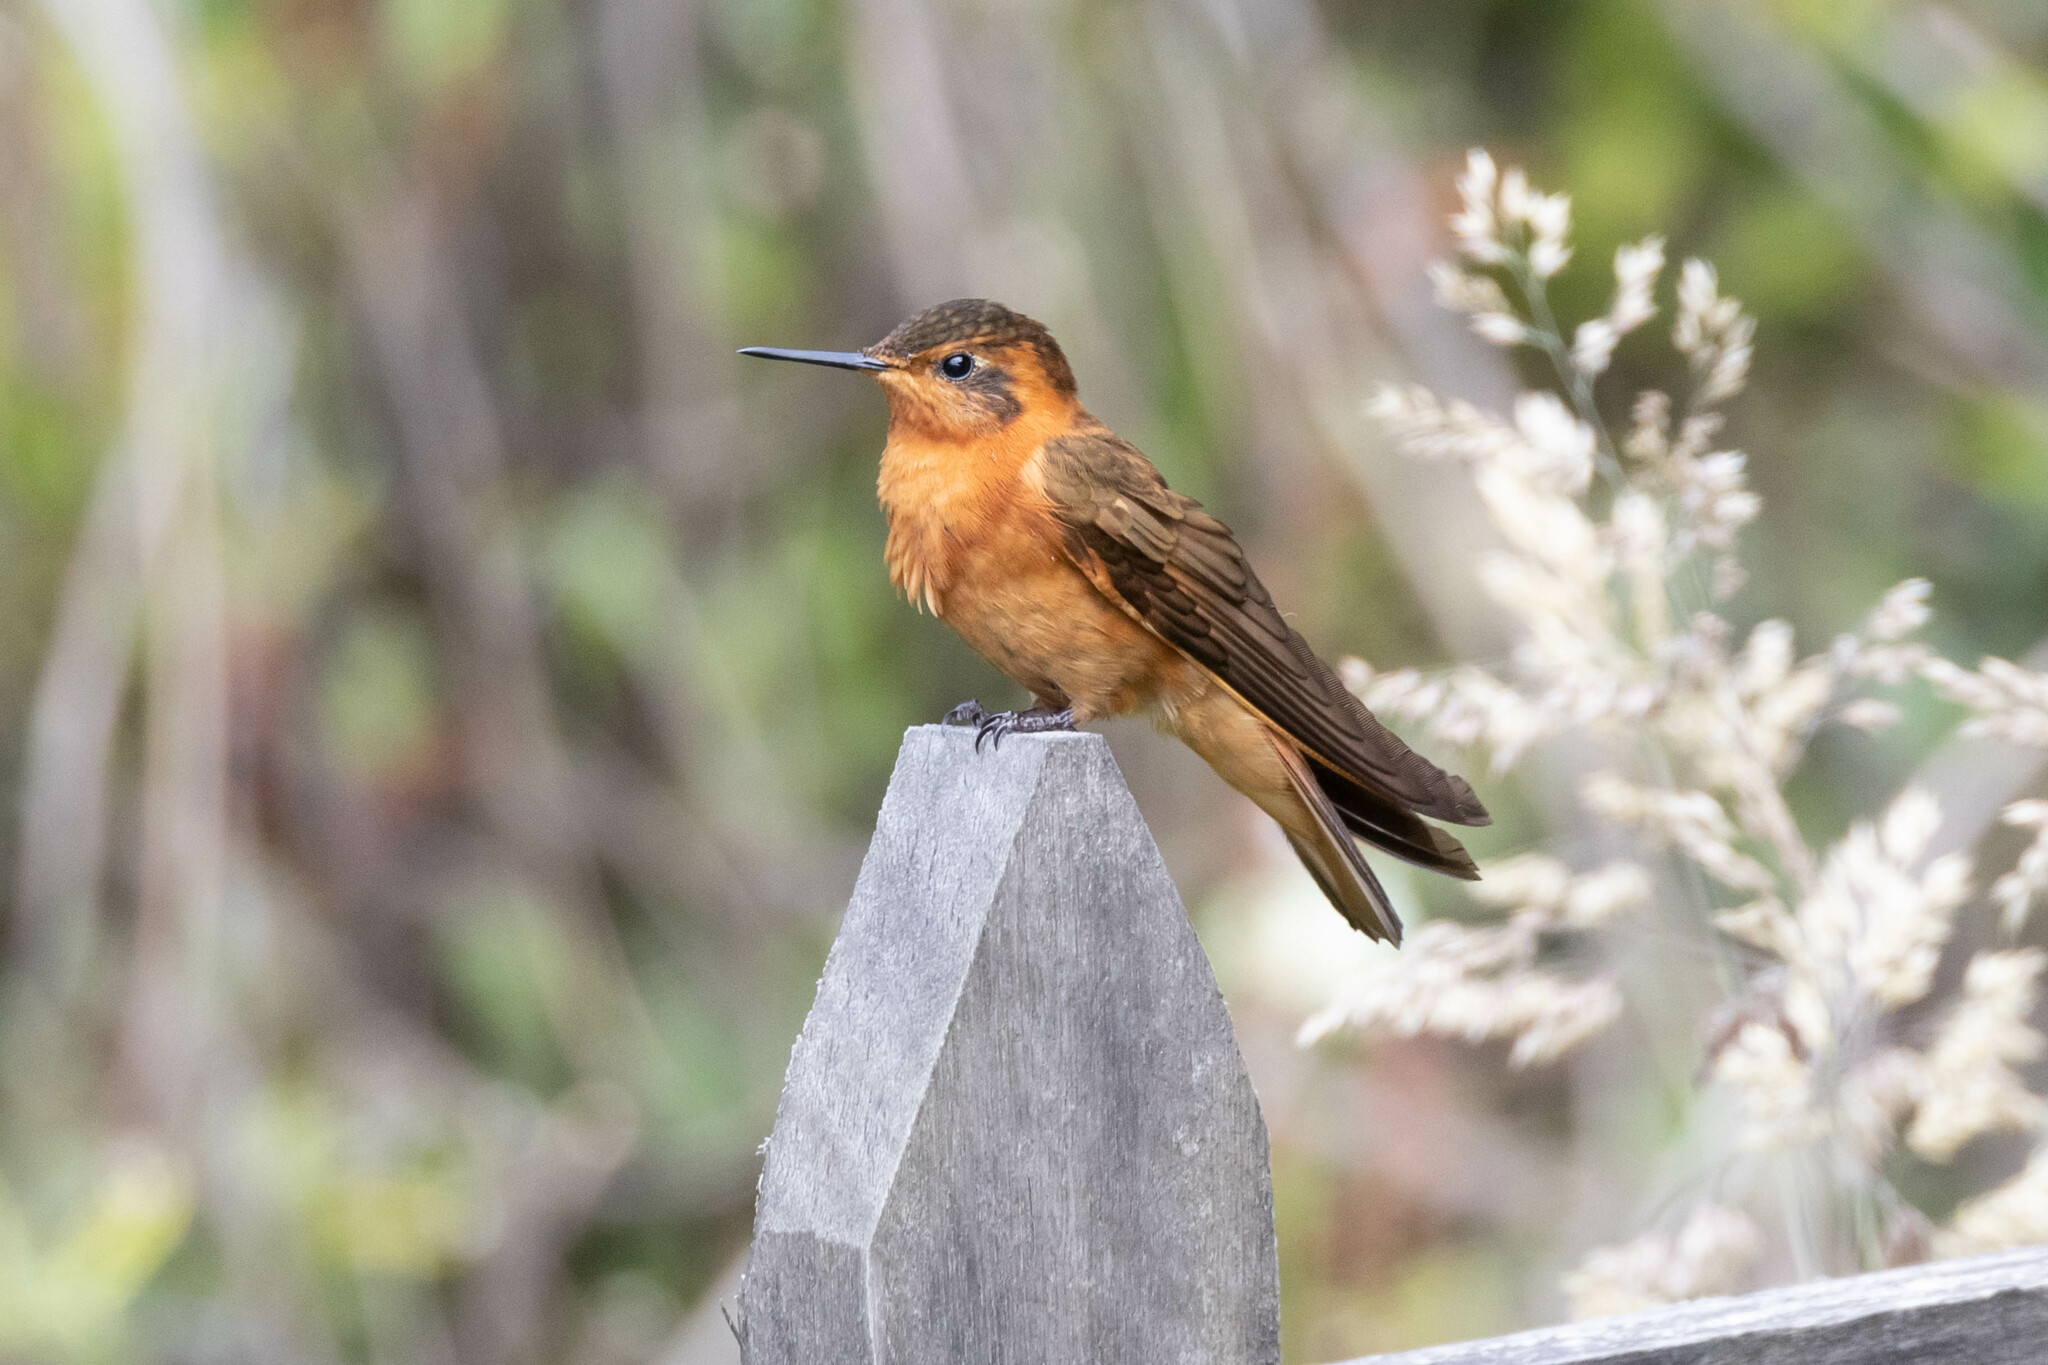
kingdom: Animalia
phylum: Chordata
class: Aves
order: Apodiformes
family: Trochilidae
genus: Aglaeactis
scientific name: Aglaeactis cupripennis
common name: Shining sunbeam
